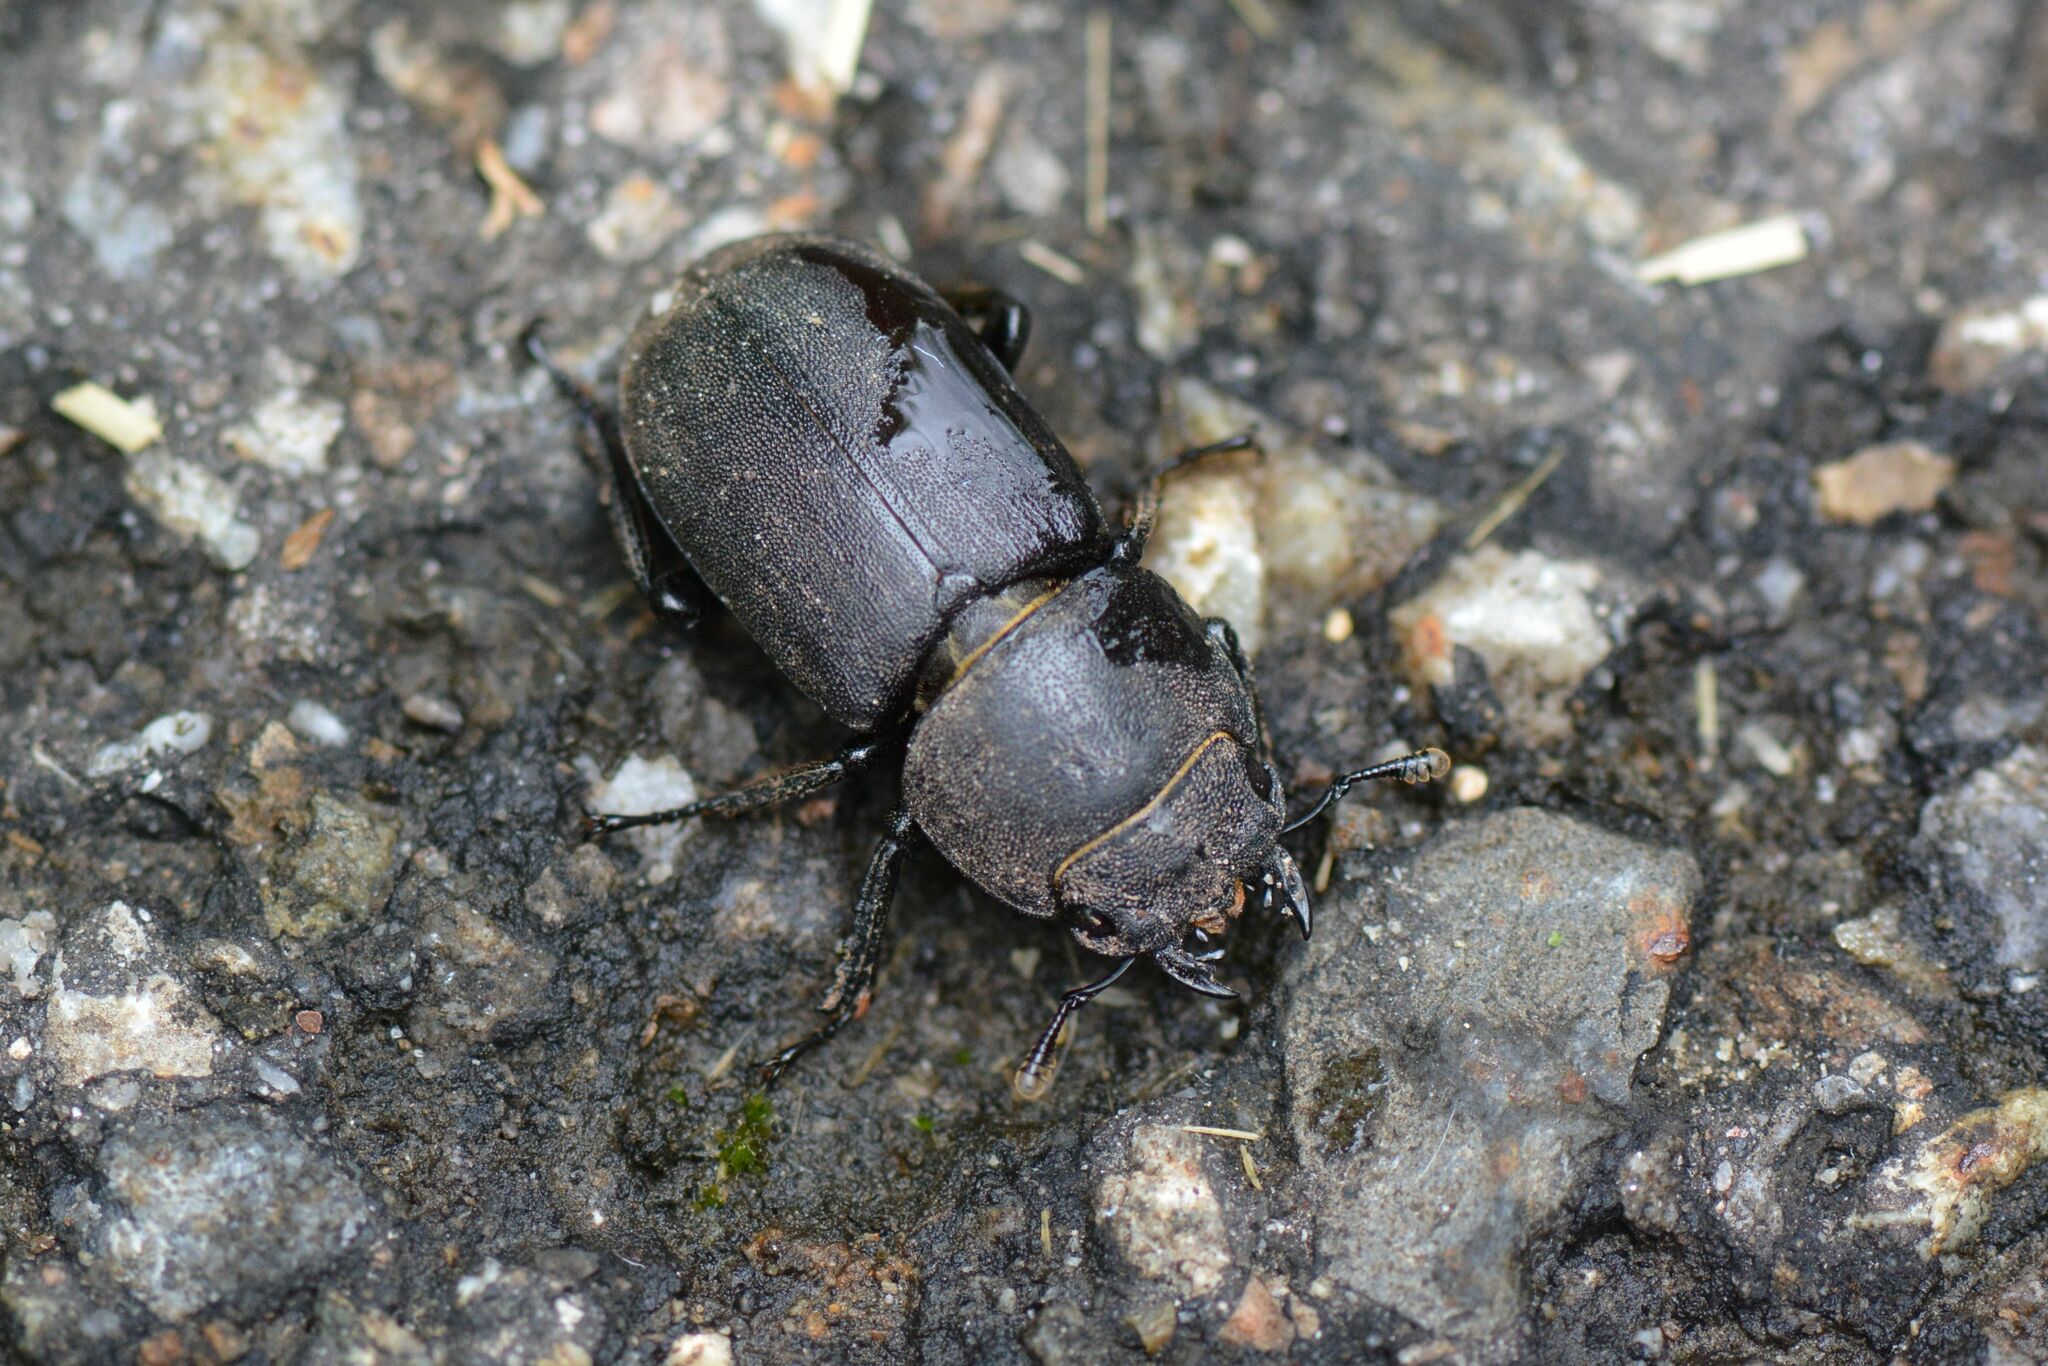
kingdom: Animalia
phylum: Arthropoda
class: Insecta
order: Coleoptera
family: Lucanidae
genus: Dorcus
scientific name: Dorcus parallelipipedus
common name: Lesser stag beetle
